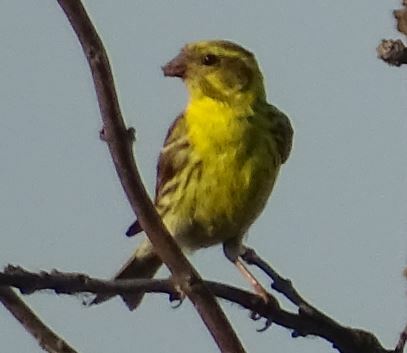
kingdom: Animalia
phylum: Chordata
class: Aves
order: Passeriformes
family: Fringillidae
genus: Serinus
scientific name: Serinus serinus
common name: European serin
